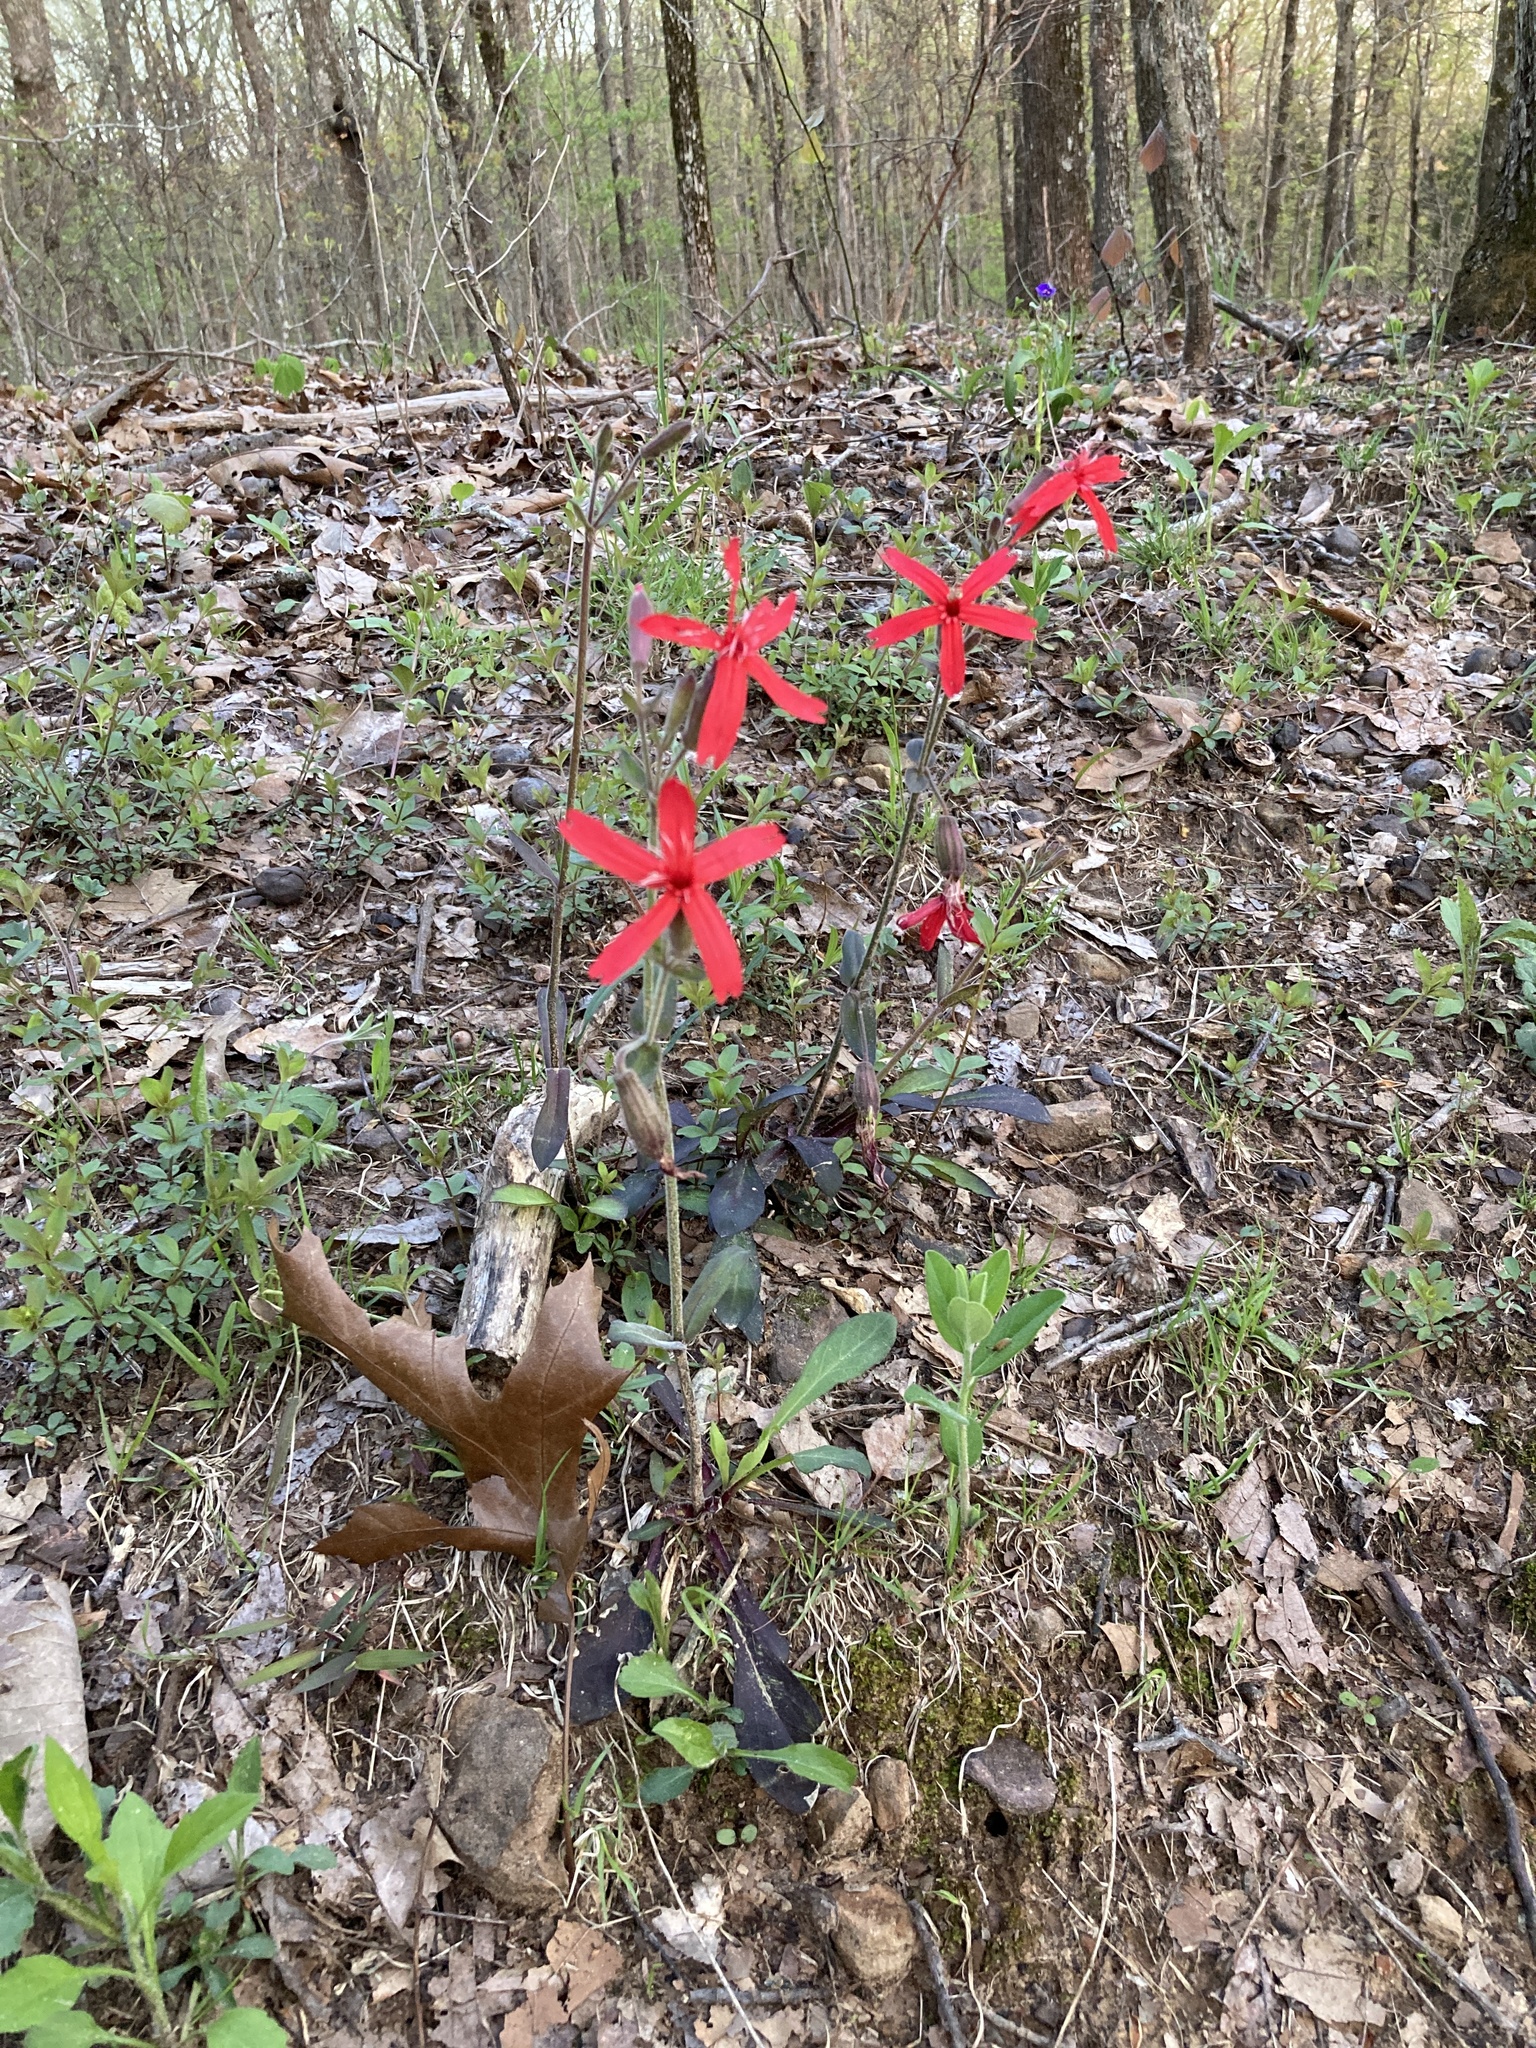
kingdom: Plantae
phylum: Tracheophyta
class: Magnoliopsida
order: Caryophyllales
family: Caryophyllaceae
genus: Silene
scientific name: Silene virginica
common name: Fire-pink
